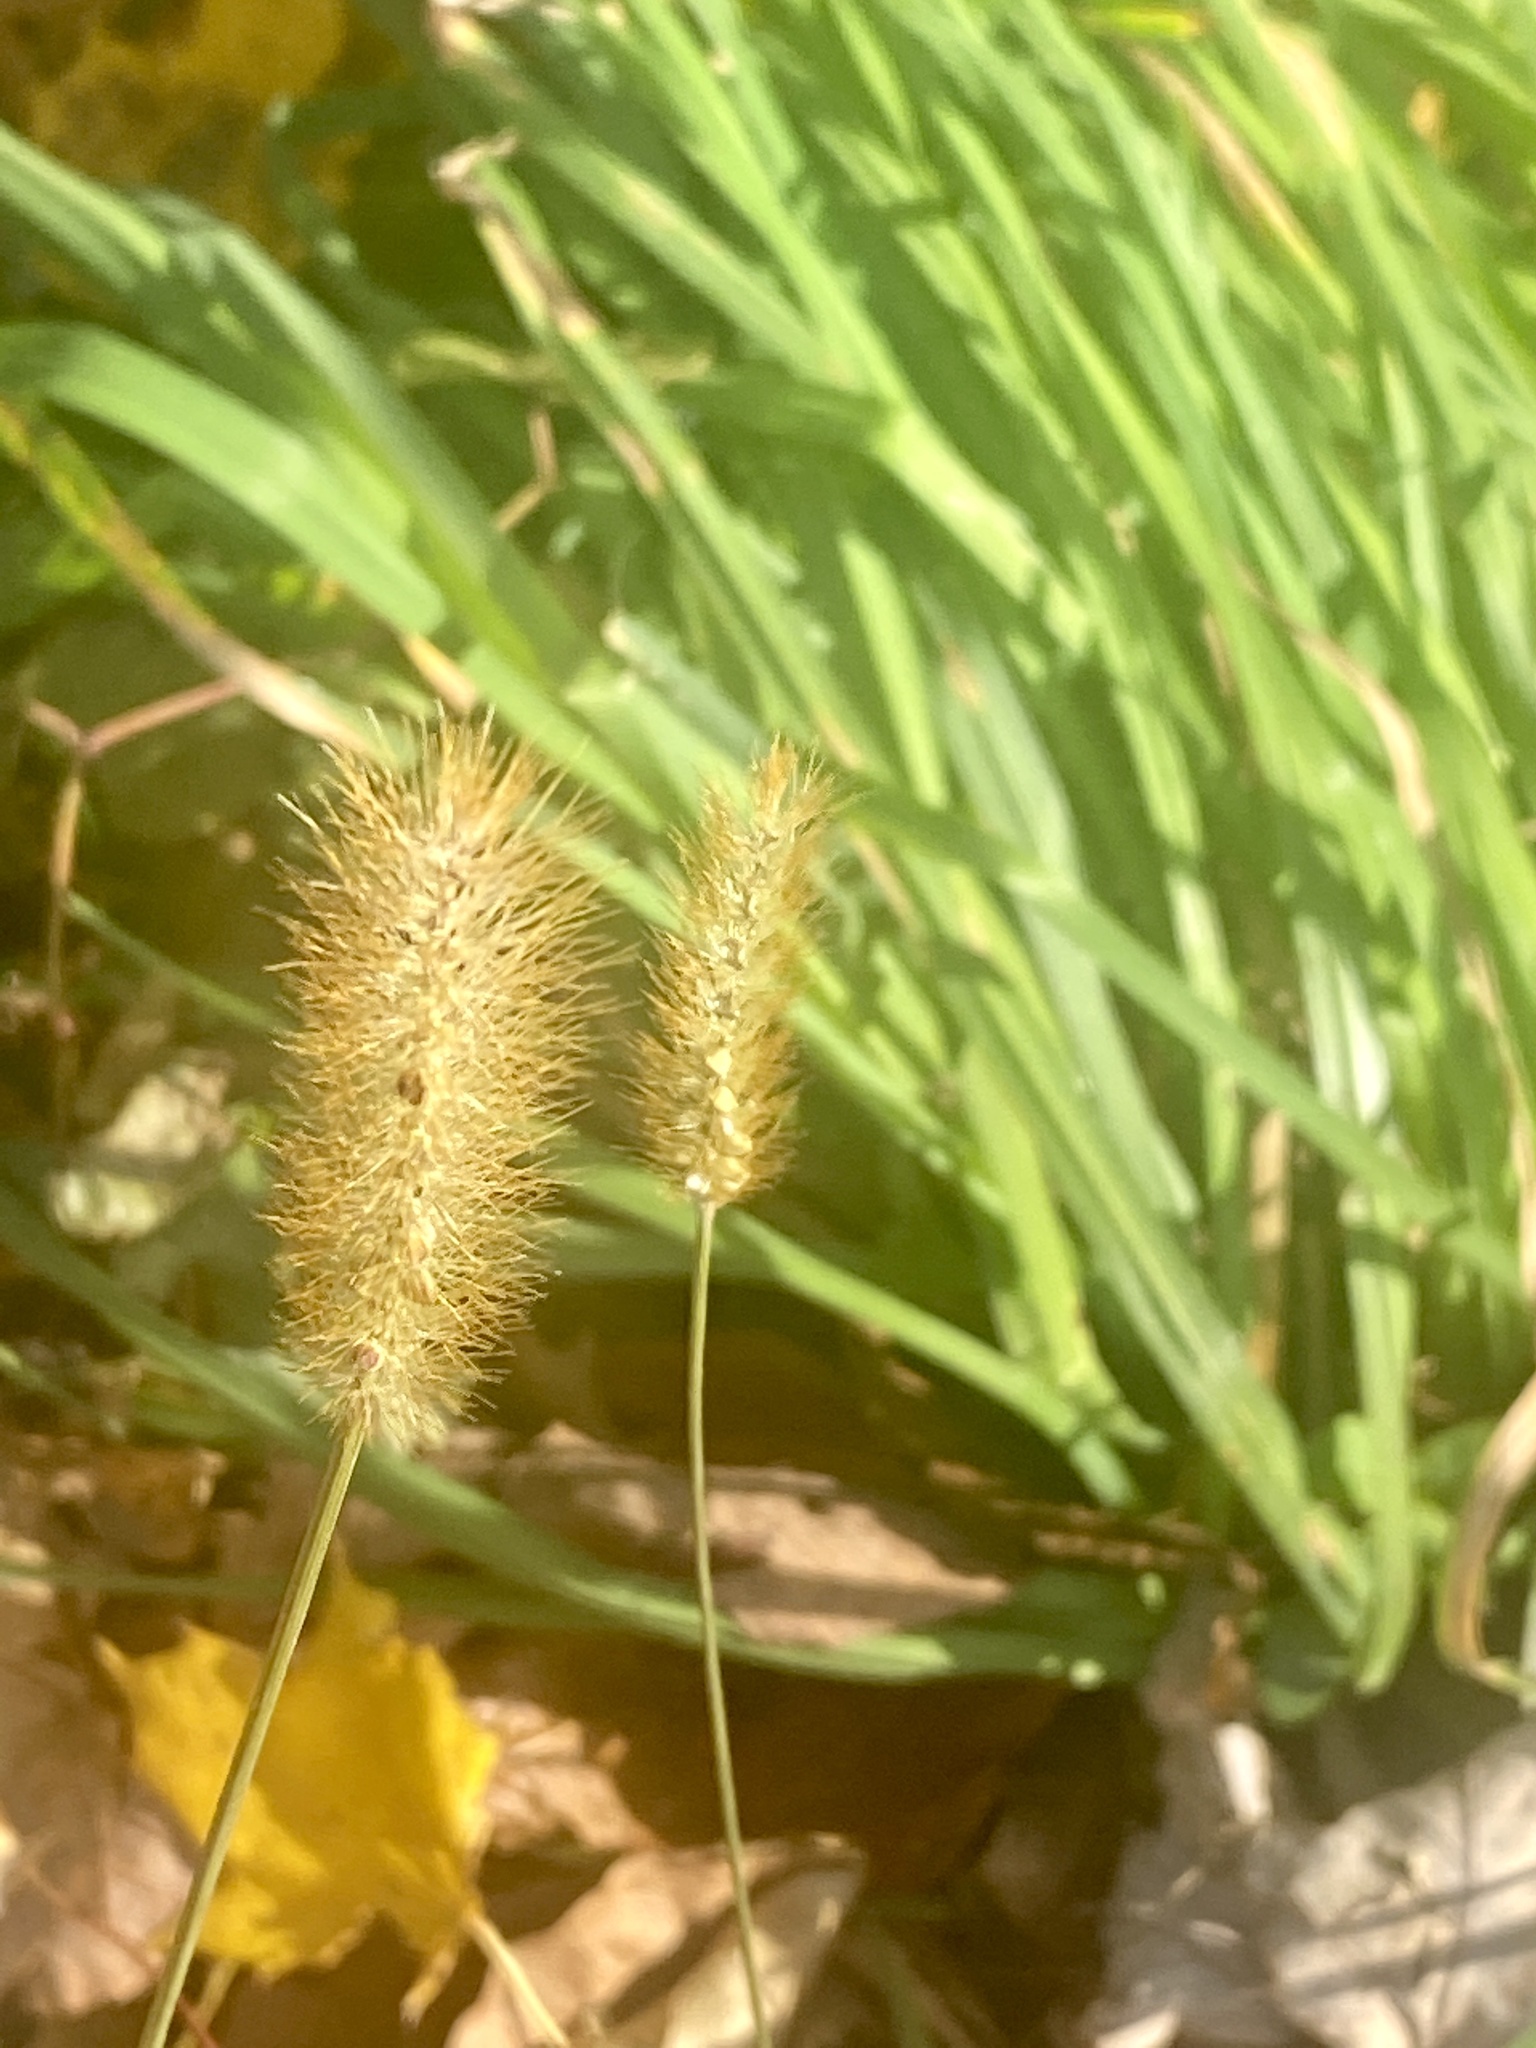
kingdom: Plantae
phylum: Tracheophyta
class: Liliopsida
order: Poales
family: Poaceae
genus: Setaria
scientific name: Setaria pumila
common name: Yellow bristle-grass
